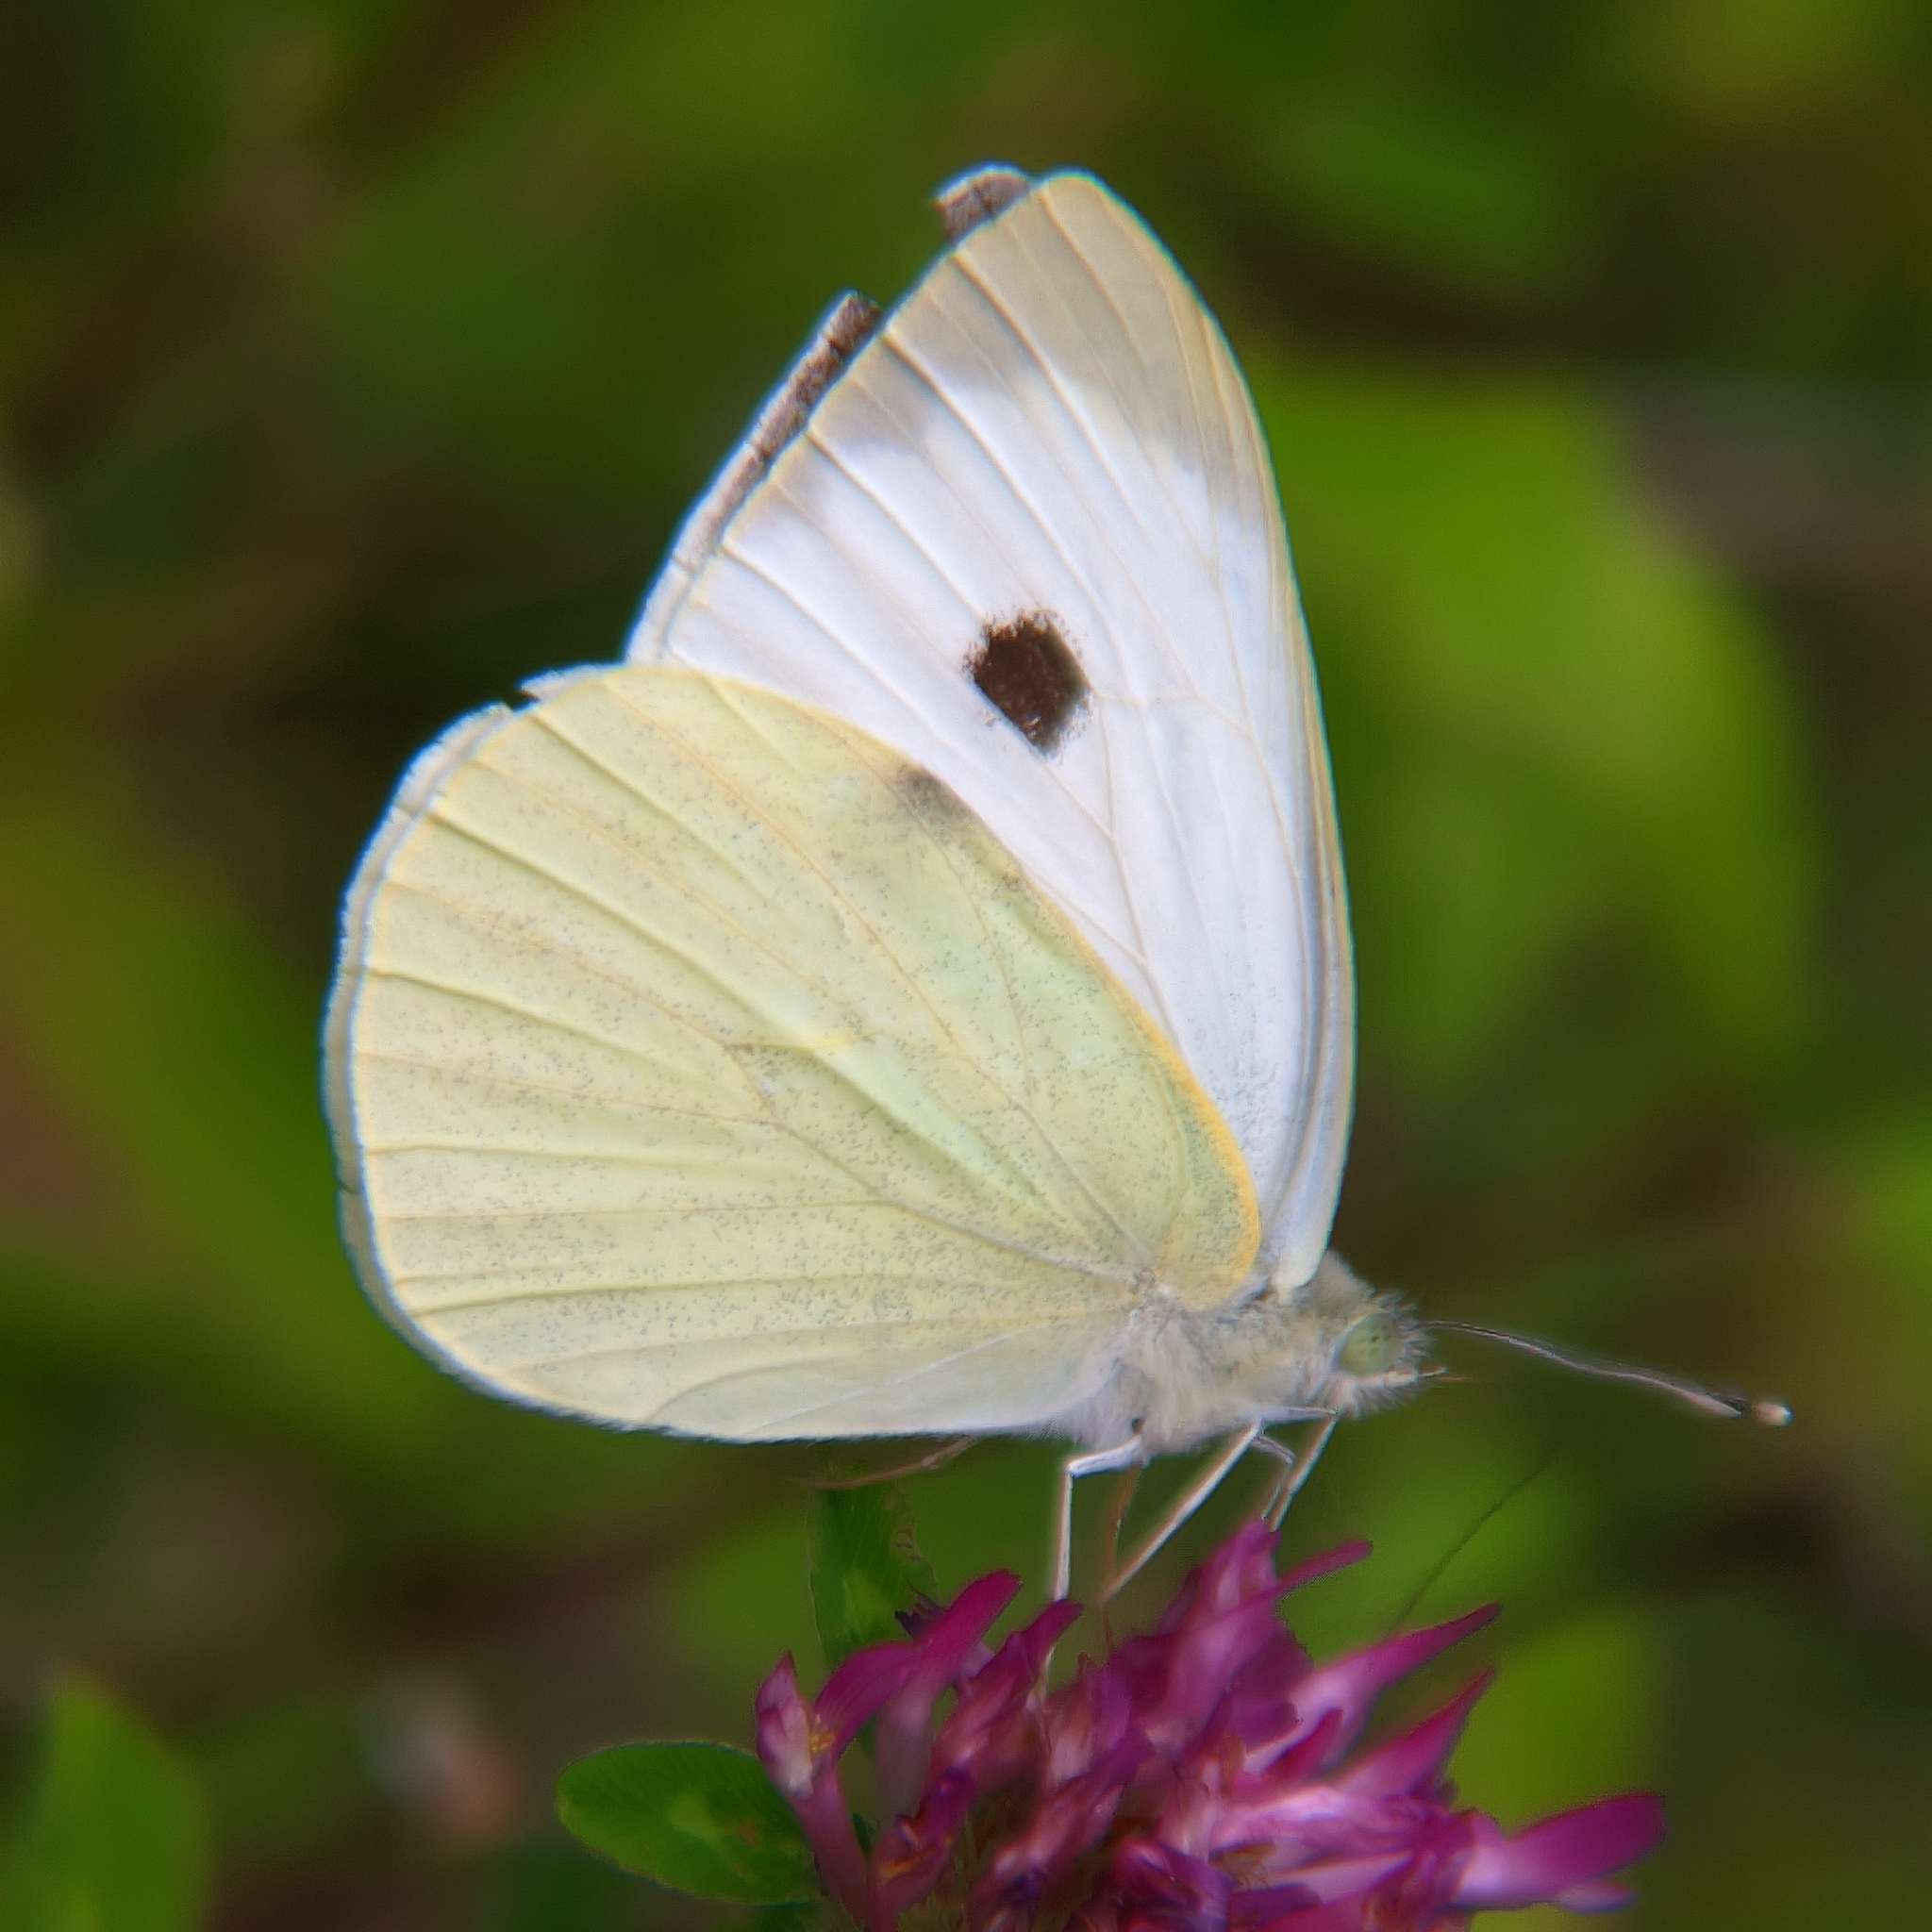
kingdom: Animalia
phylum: Arthropoda
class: Insecta
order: Lepidoptera
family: Pieridae
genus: Pieris
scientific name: Pieris brassicae
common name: Large white
